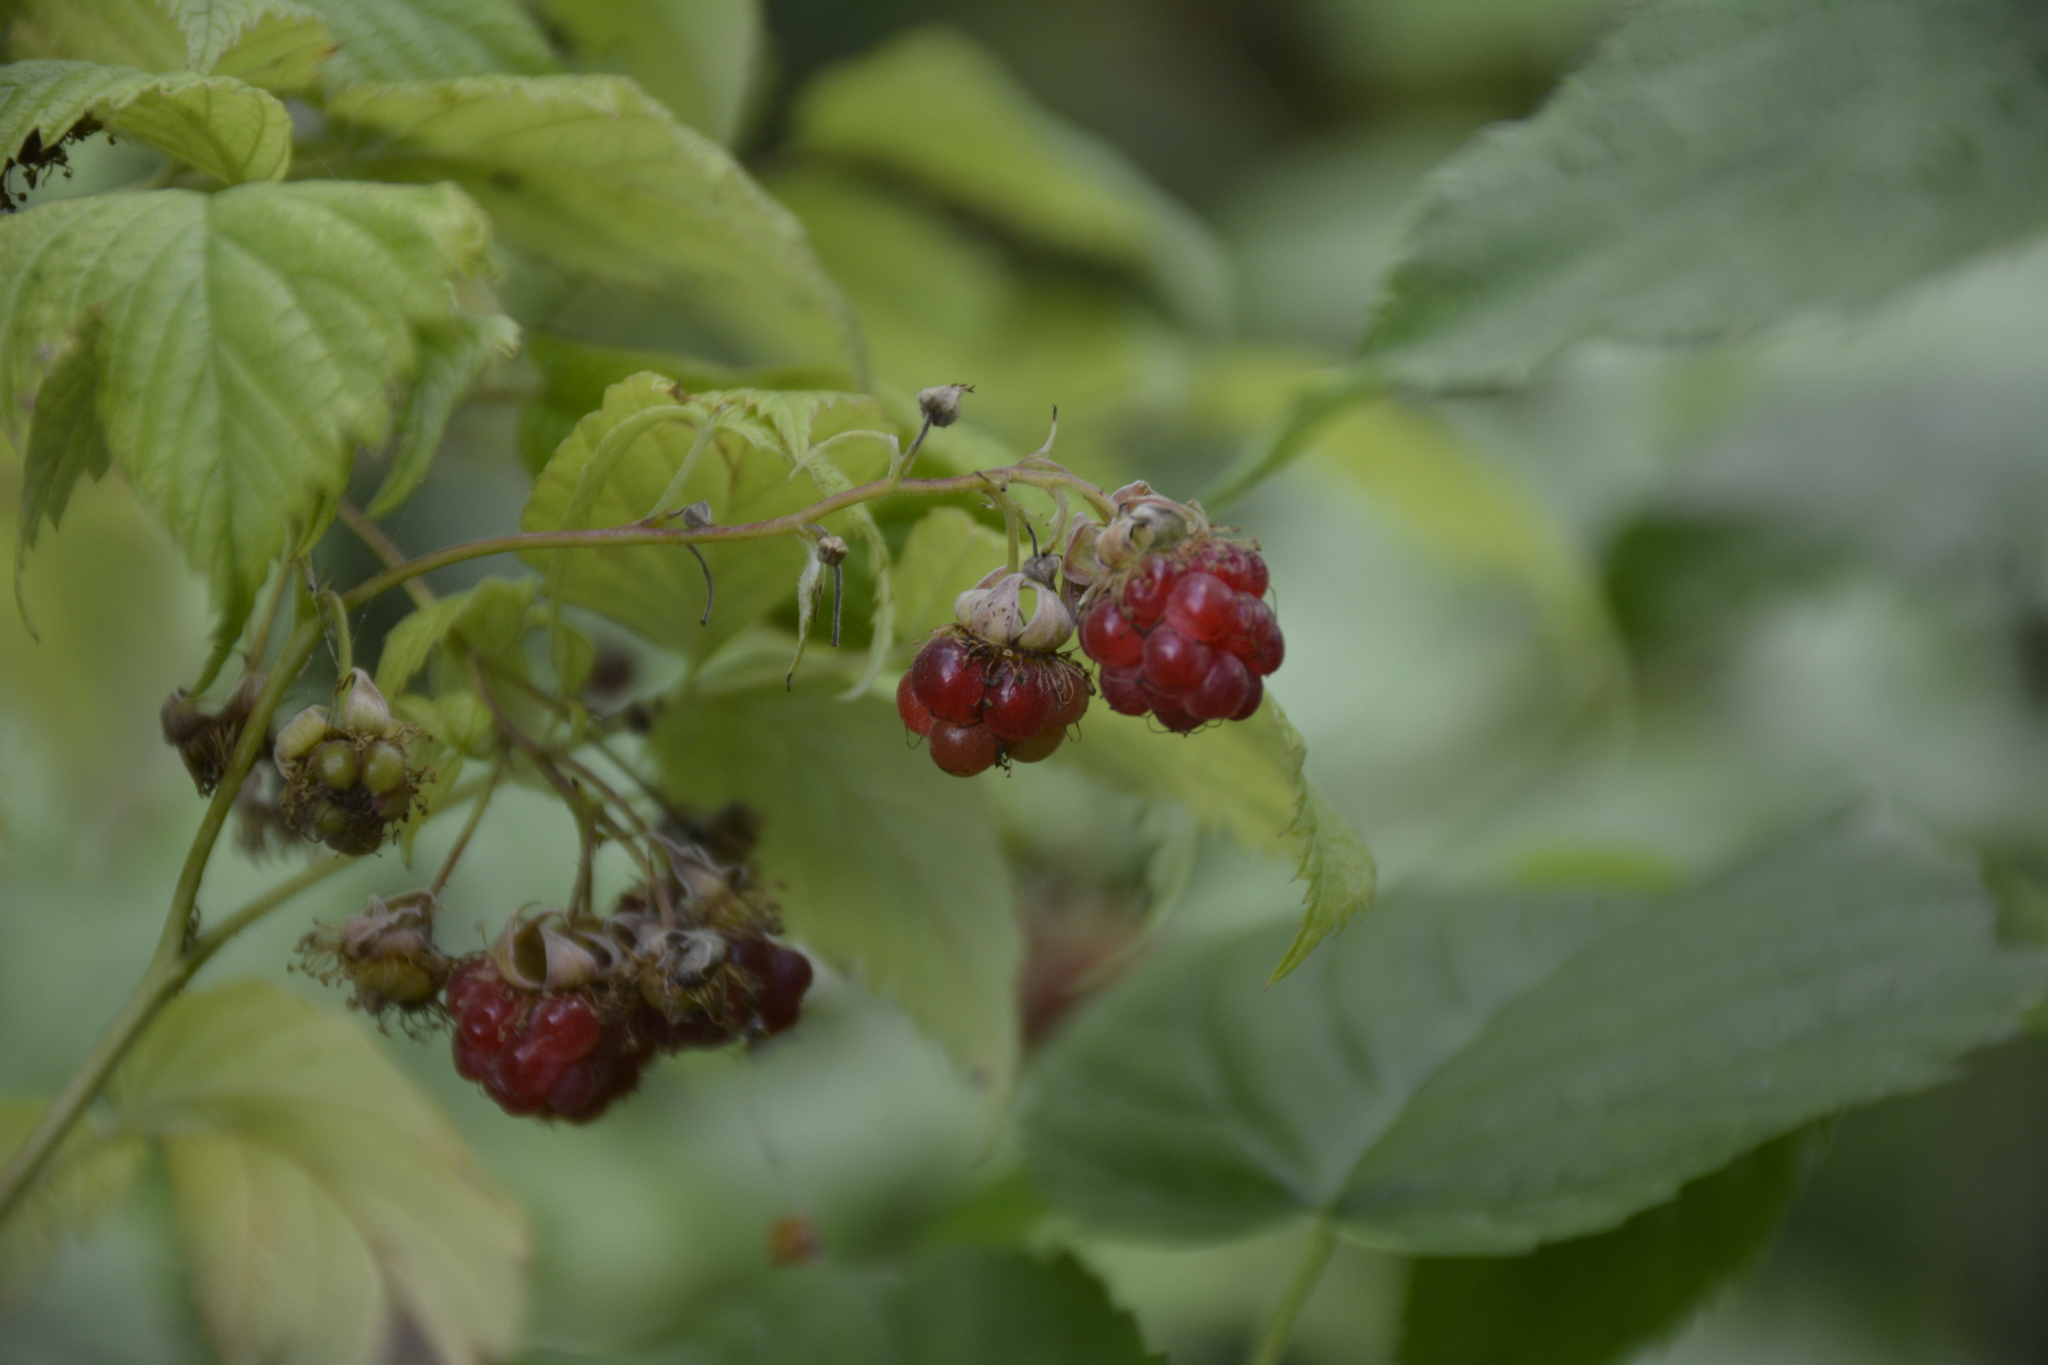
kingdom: Plantae
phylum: Tracheophyta
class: Magnoliopsida
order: Rosales
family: Rosaceae
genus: Rubus
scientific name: Rubus idaeus
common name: Raspberry
